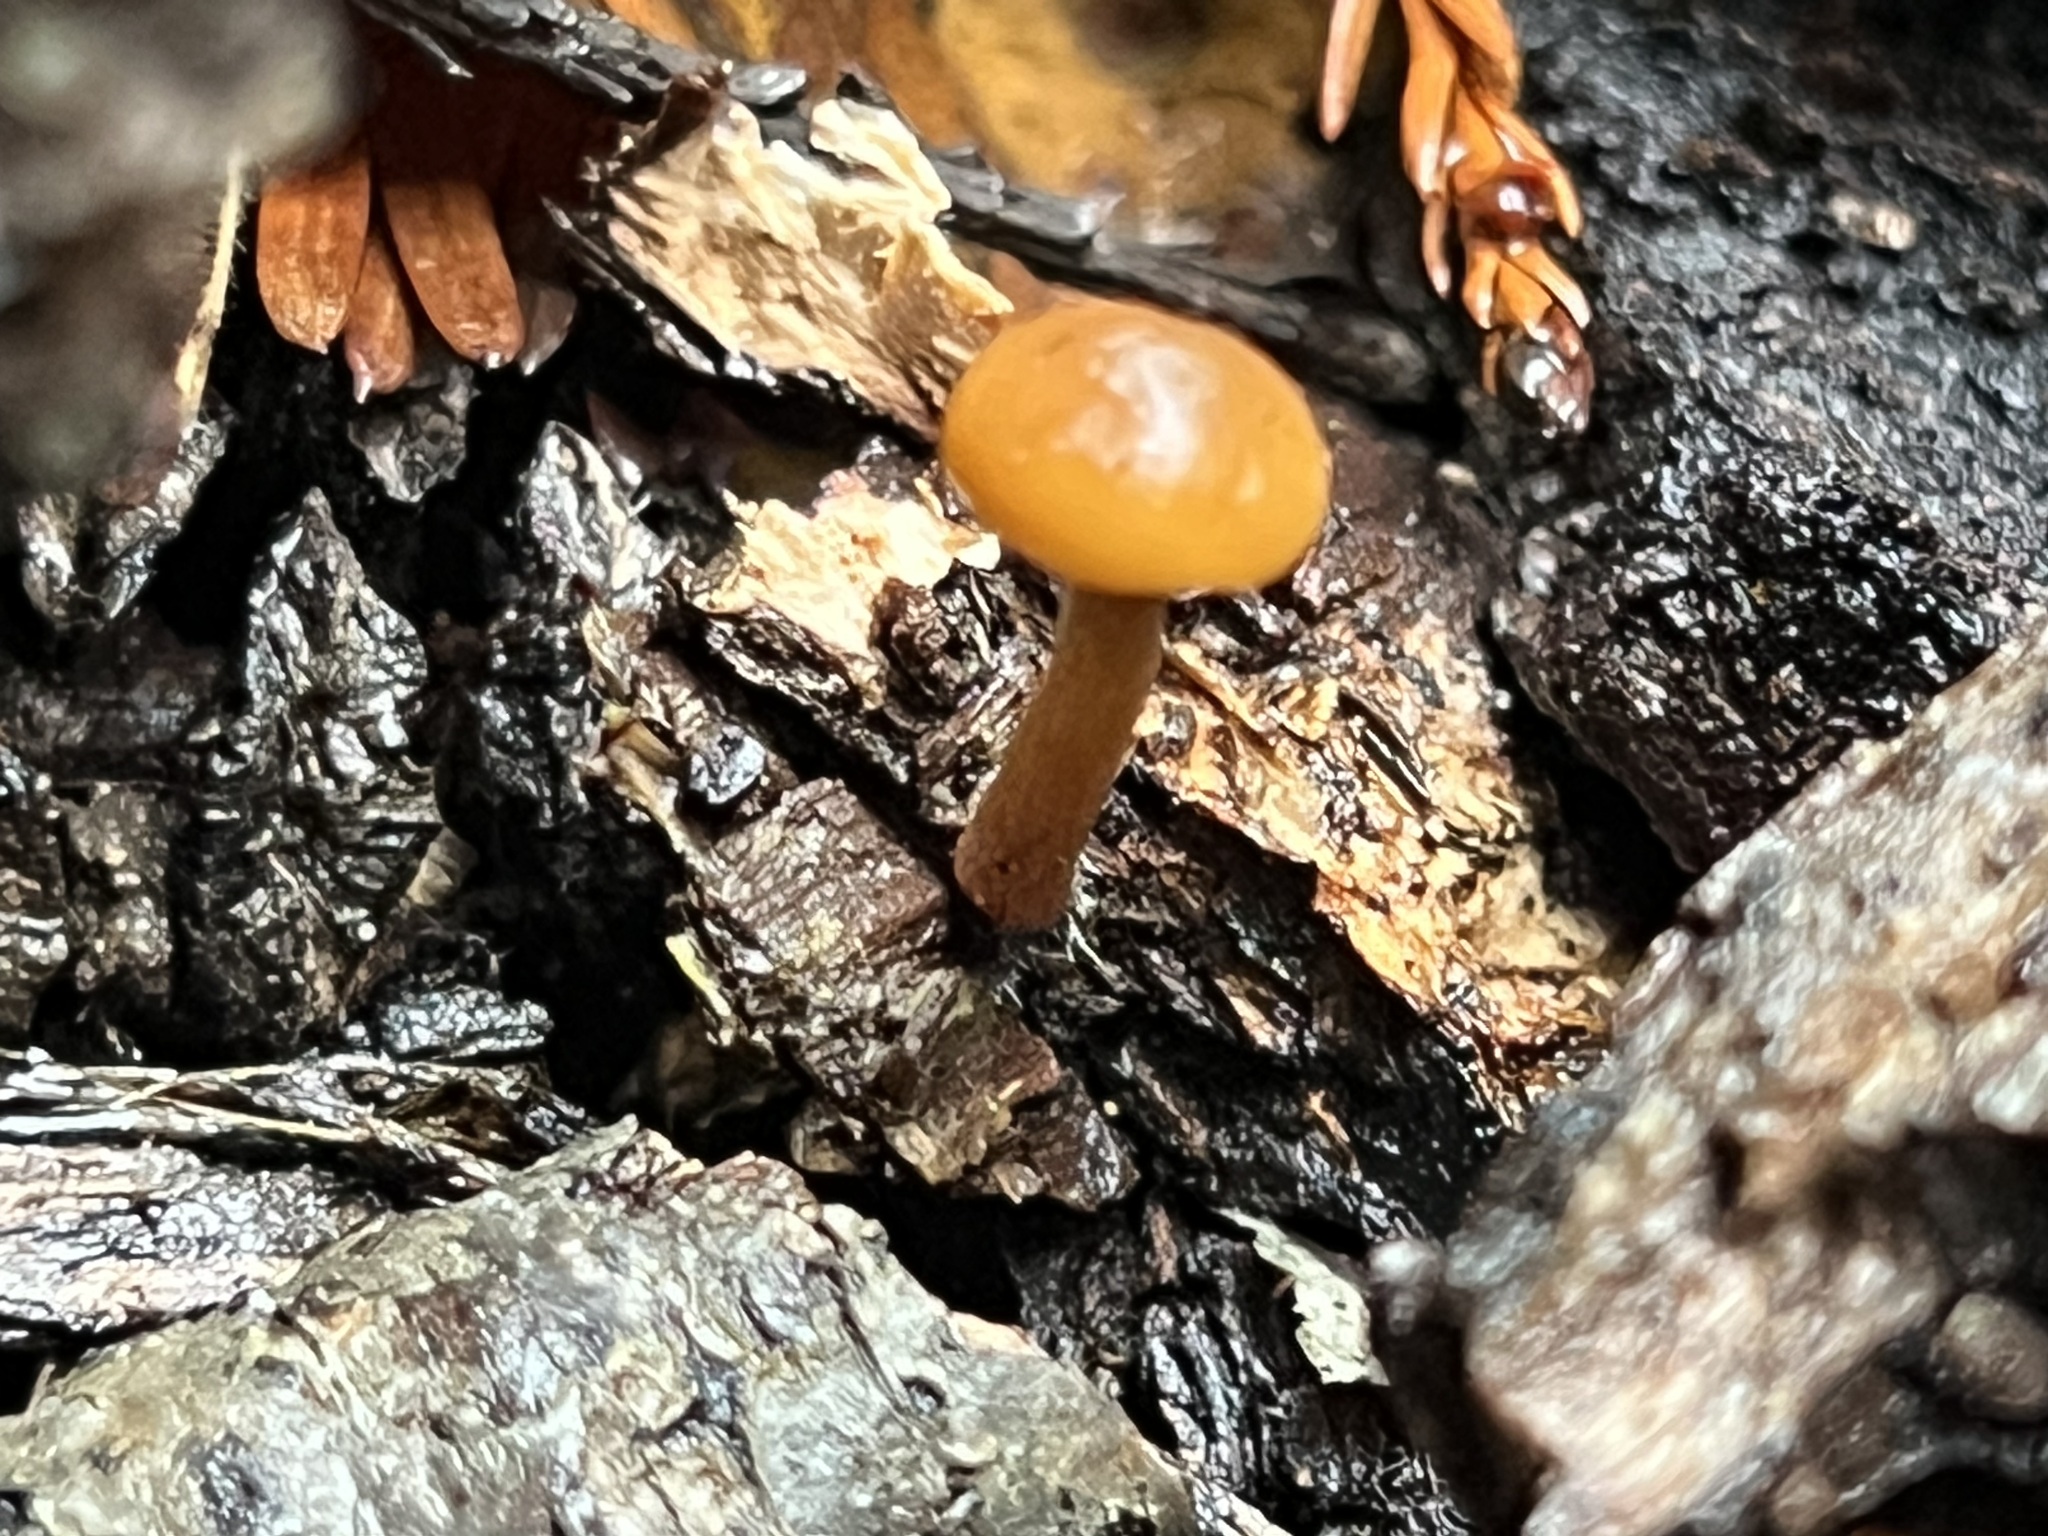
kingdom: Fungi
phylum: Basidiomycota
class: Agaricomycetes
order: Agaricales
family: Hymenogastraceae
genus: Galerina
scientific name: Galerina marginata
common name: Funeral bell
